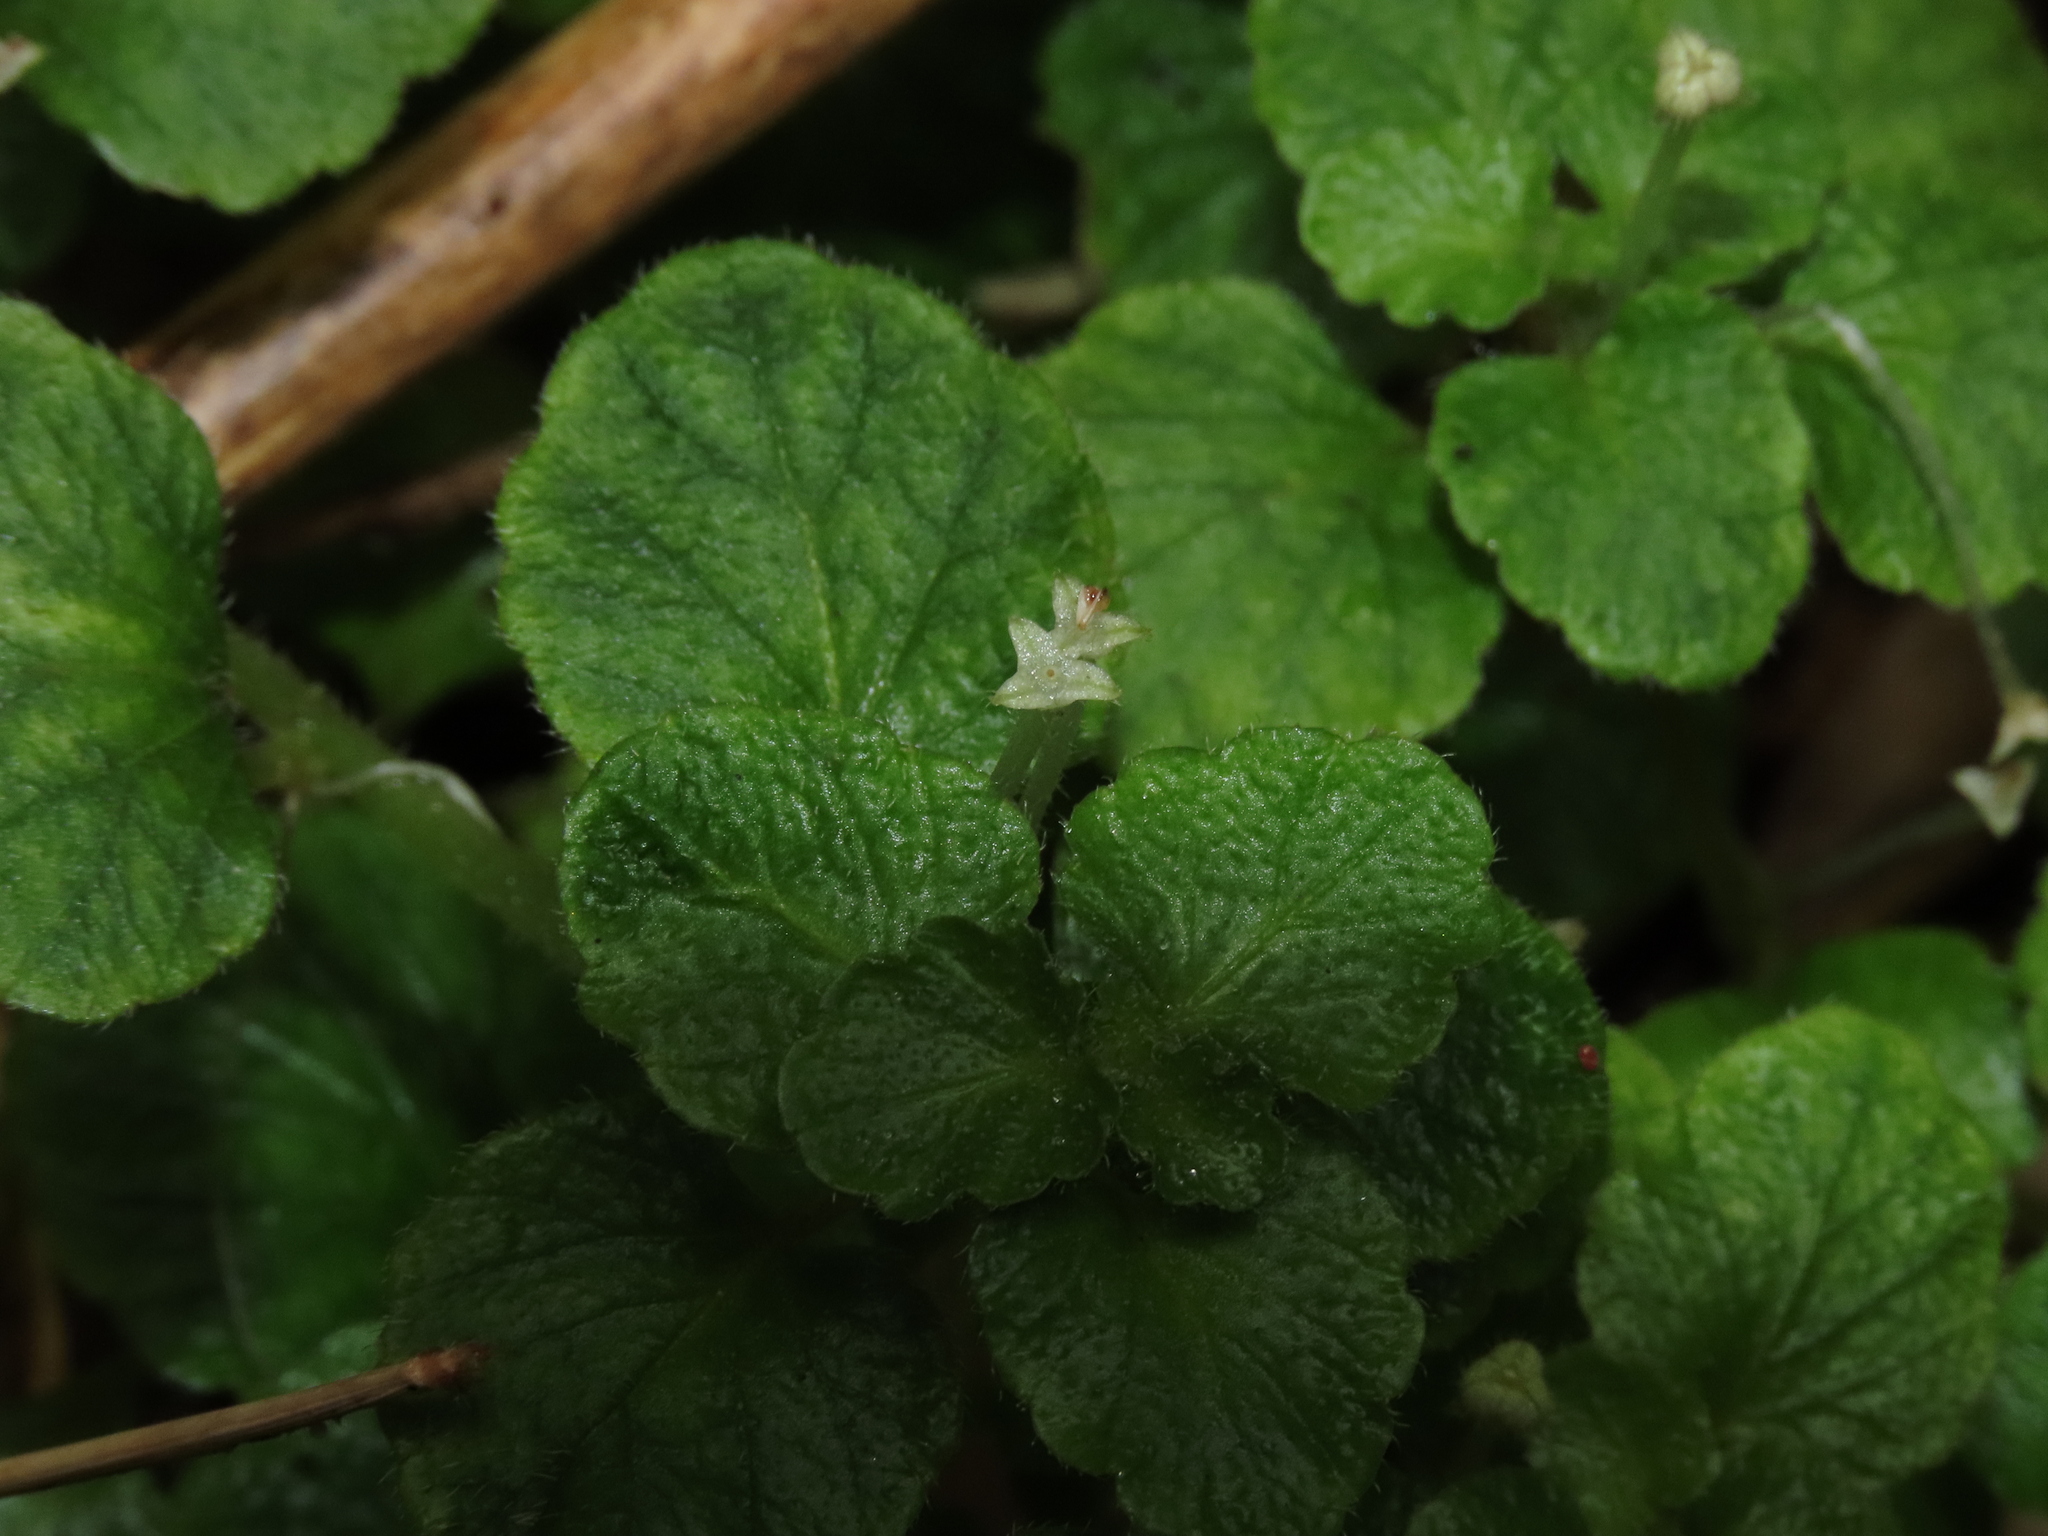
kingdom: Plantae
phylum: Tracheophyta
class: Magnoliopsida
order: Malpighiales
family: Euphorbiaceae
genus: Dysopsis
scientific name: Dysopsis glechomoides
